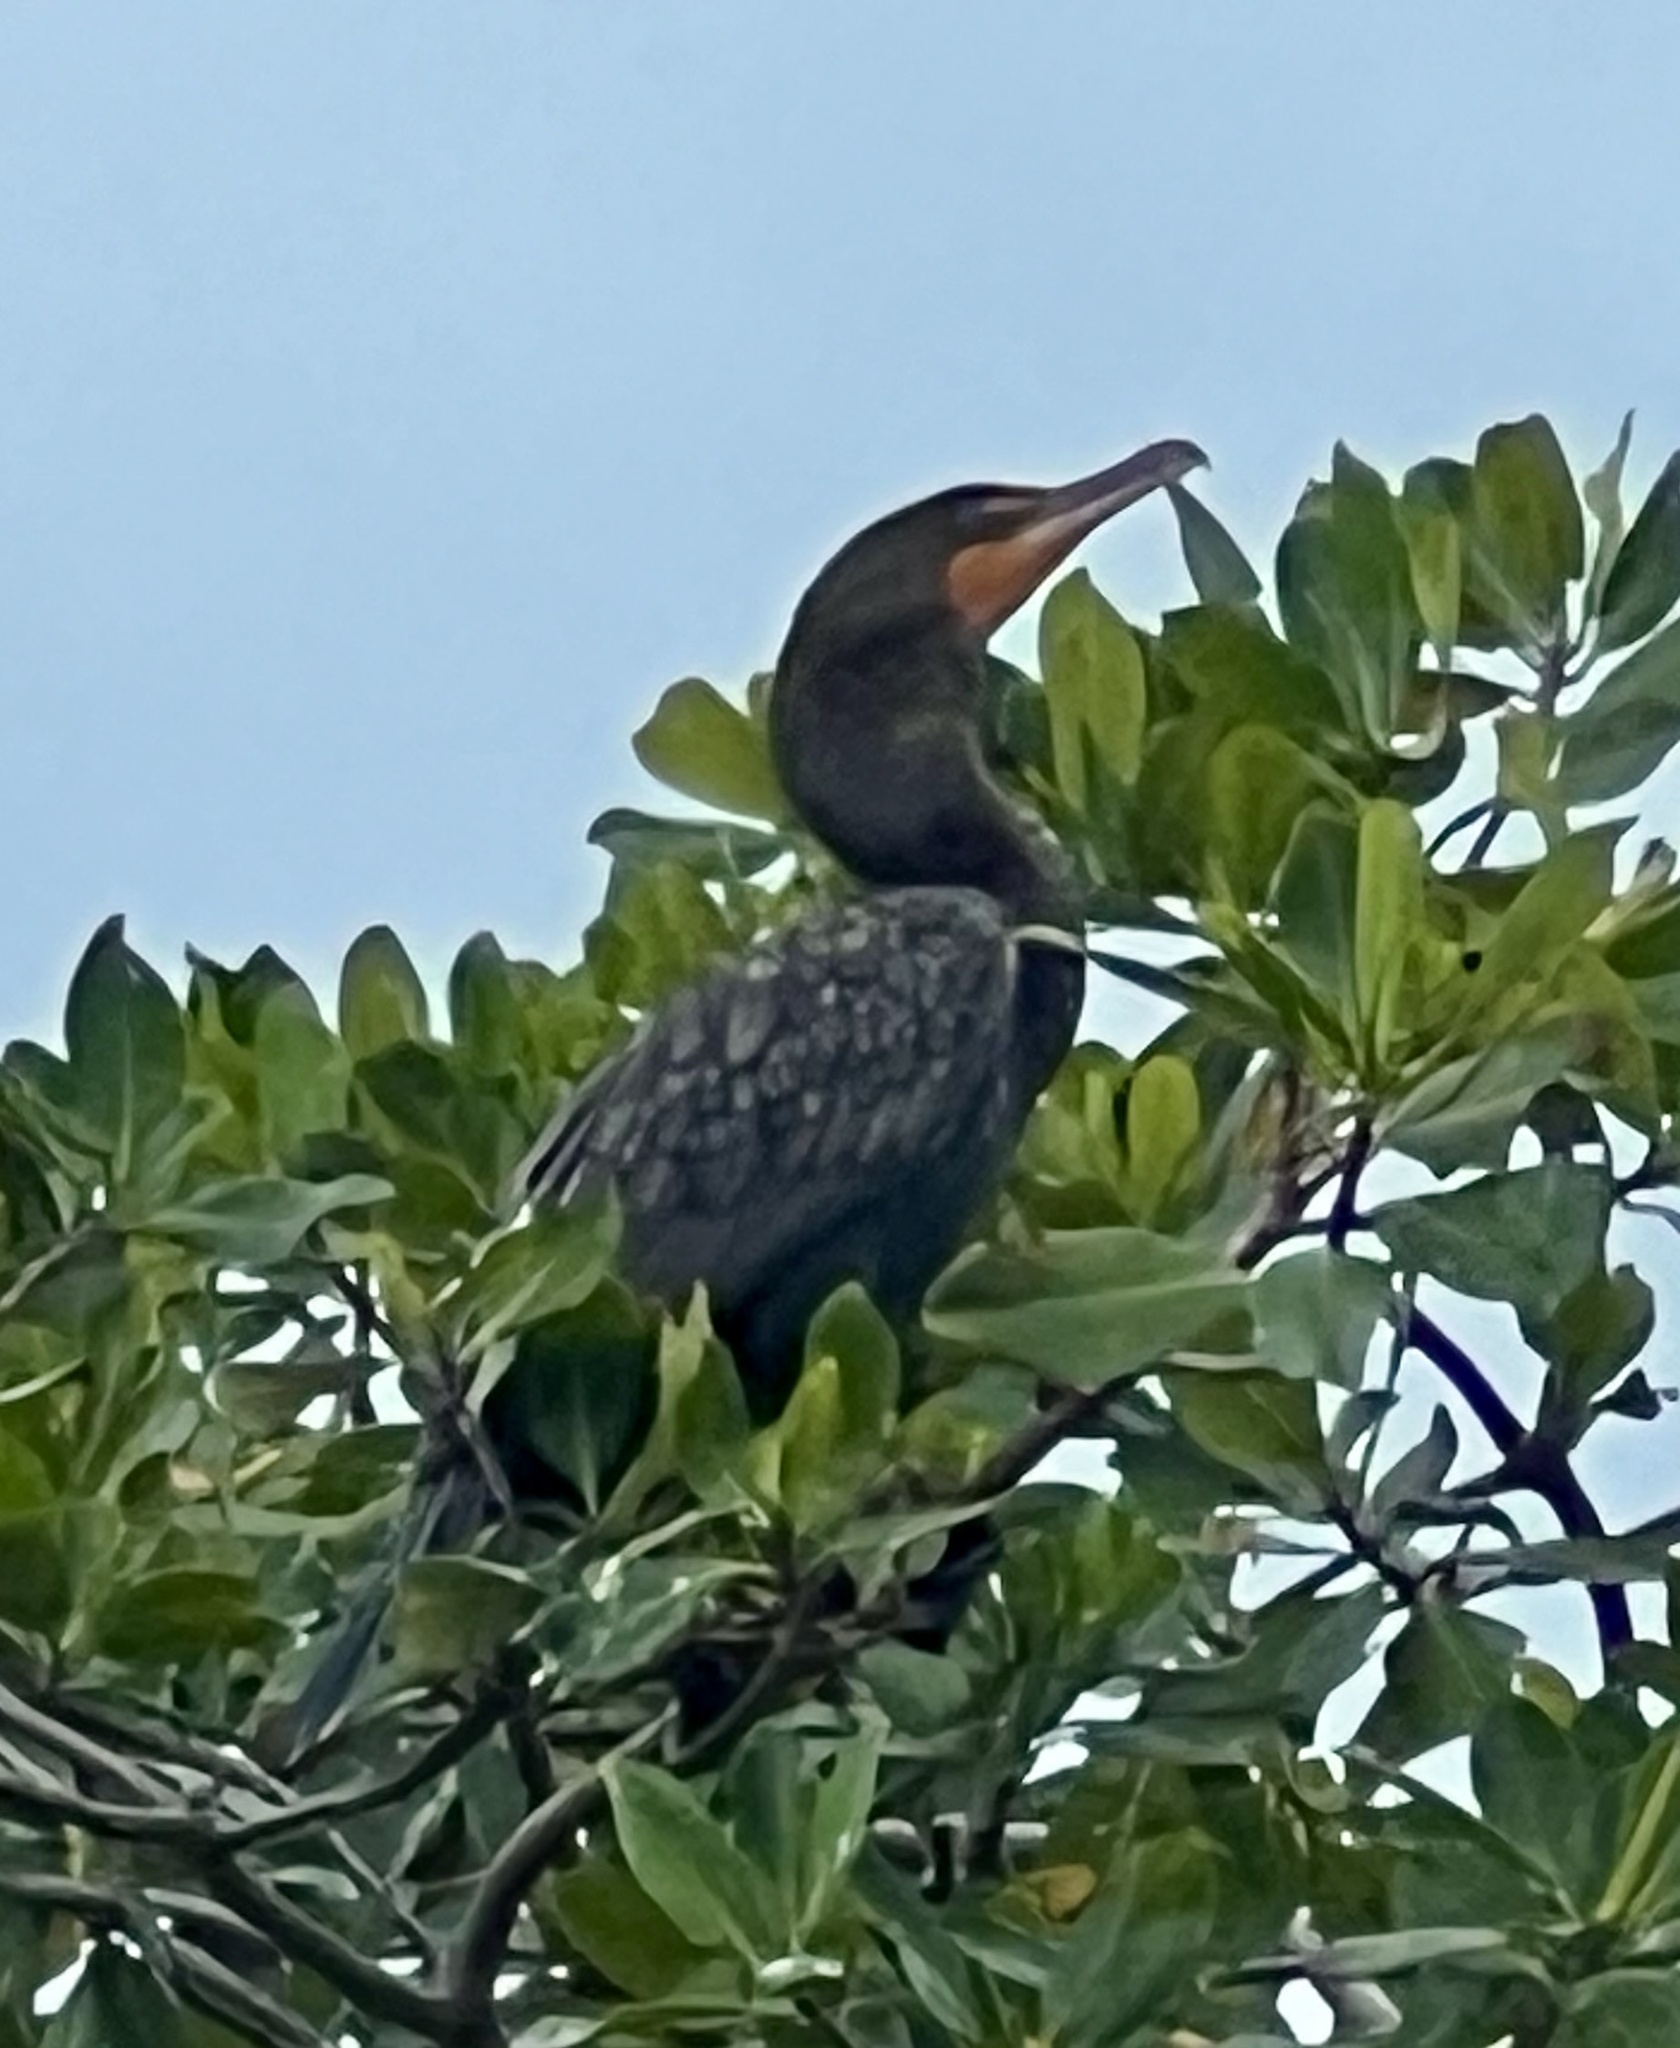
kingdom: Animalia
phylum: Chordata
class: Aves
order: Suliformes
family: Phalacrocoracidae
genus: Phalacrocorax
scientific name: Phalacrocorax auritus
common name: Double-crested cormorant
